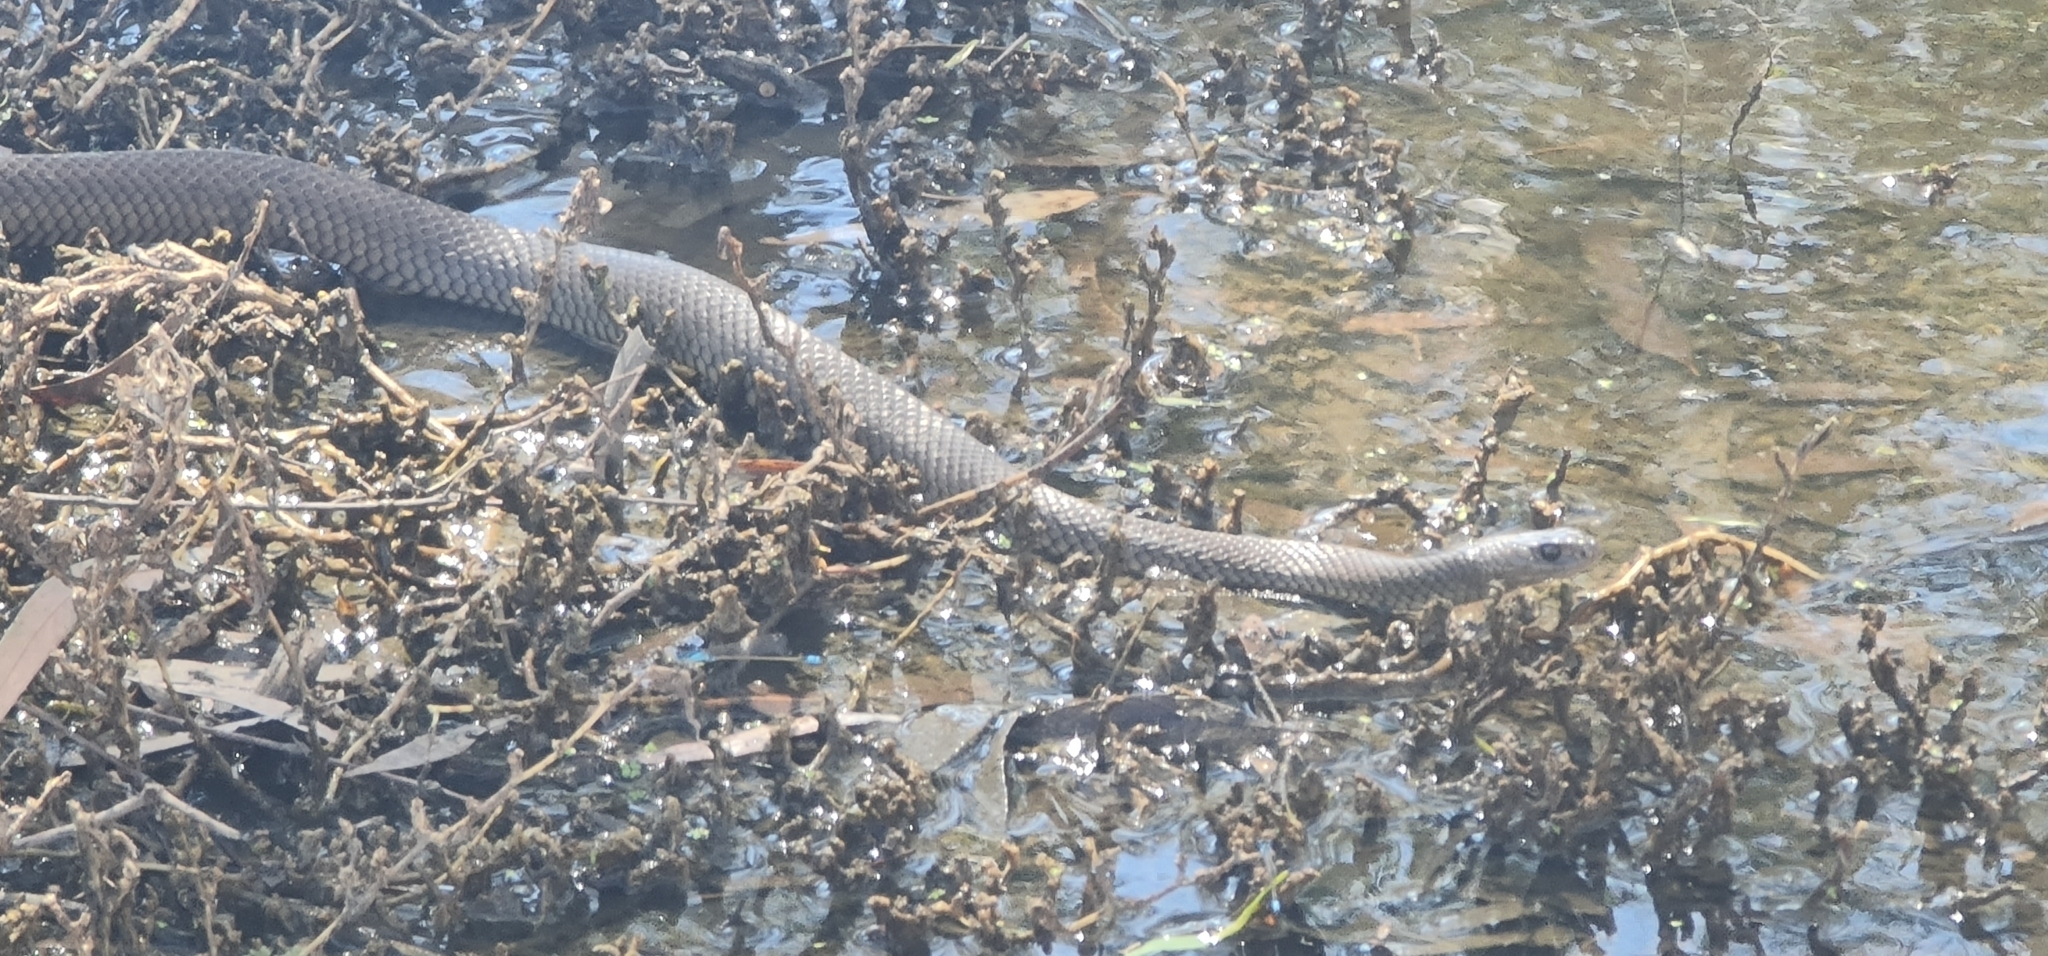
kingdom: Animalia
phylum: Chordata
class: Squamata
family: Elapidae
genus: Pseudonaja
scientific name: Pseudonaja textilis
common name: Eastern brown snake
